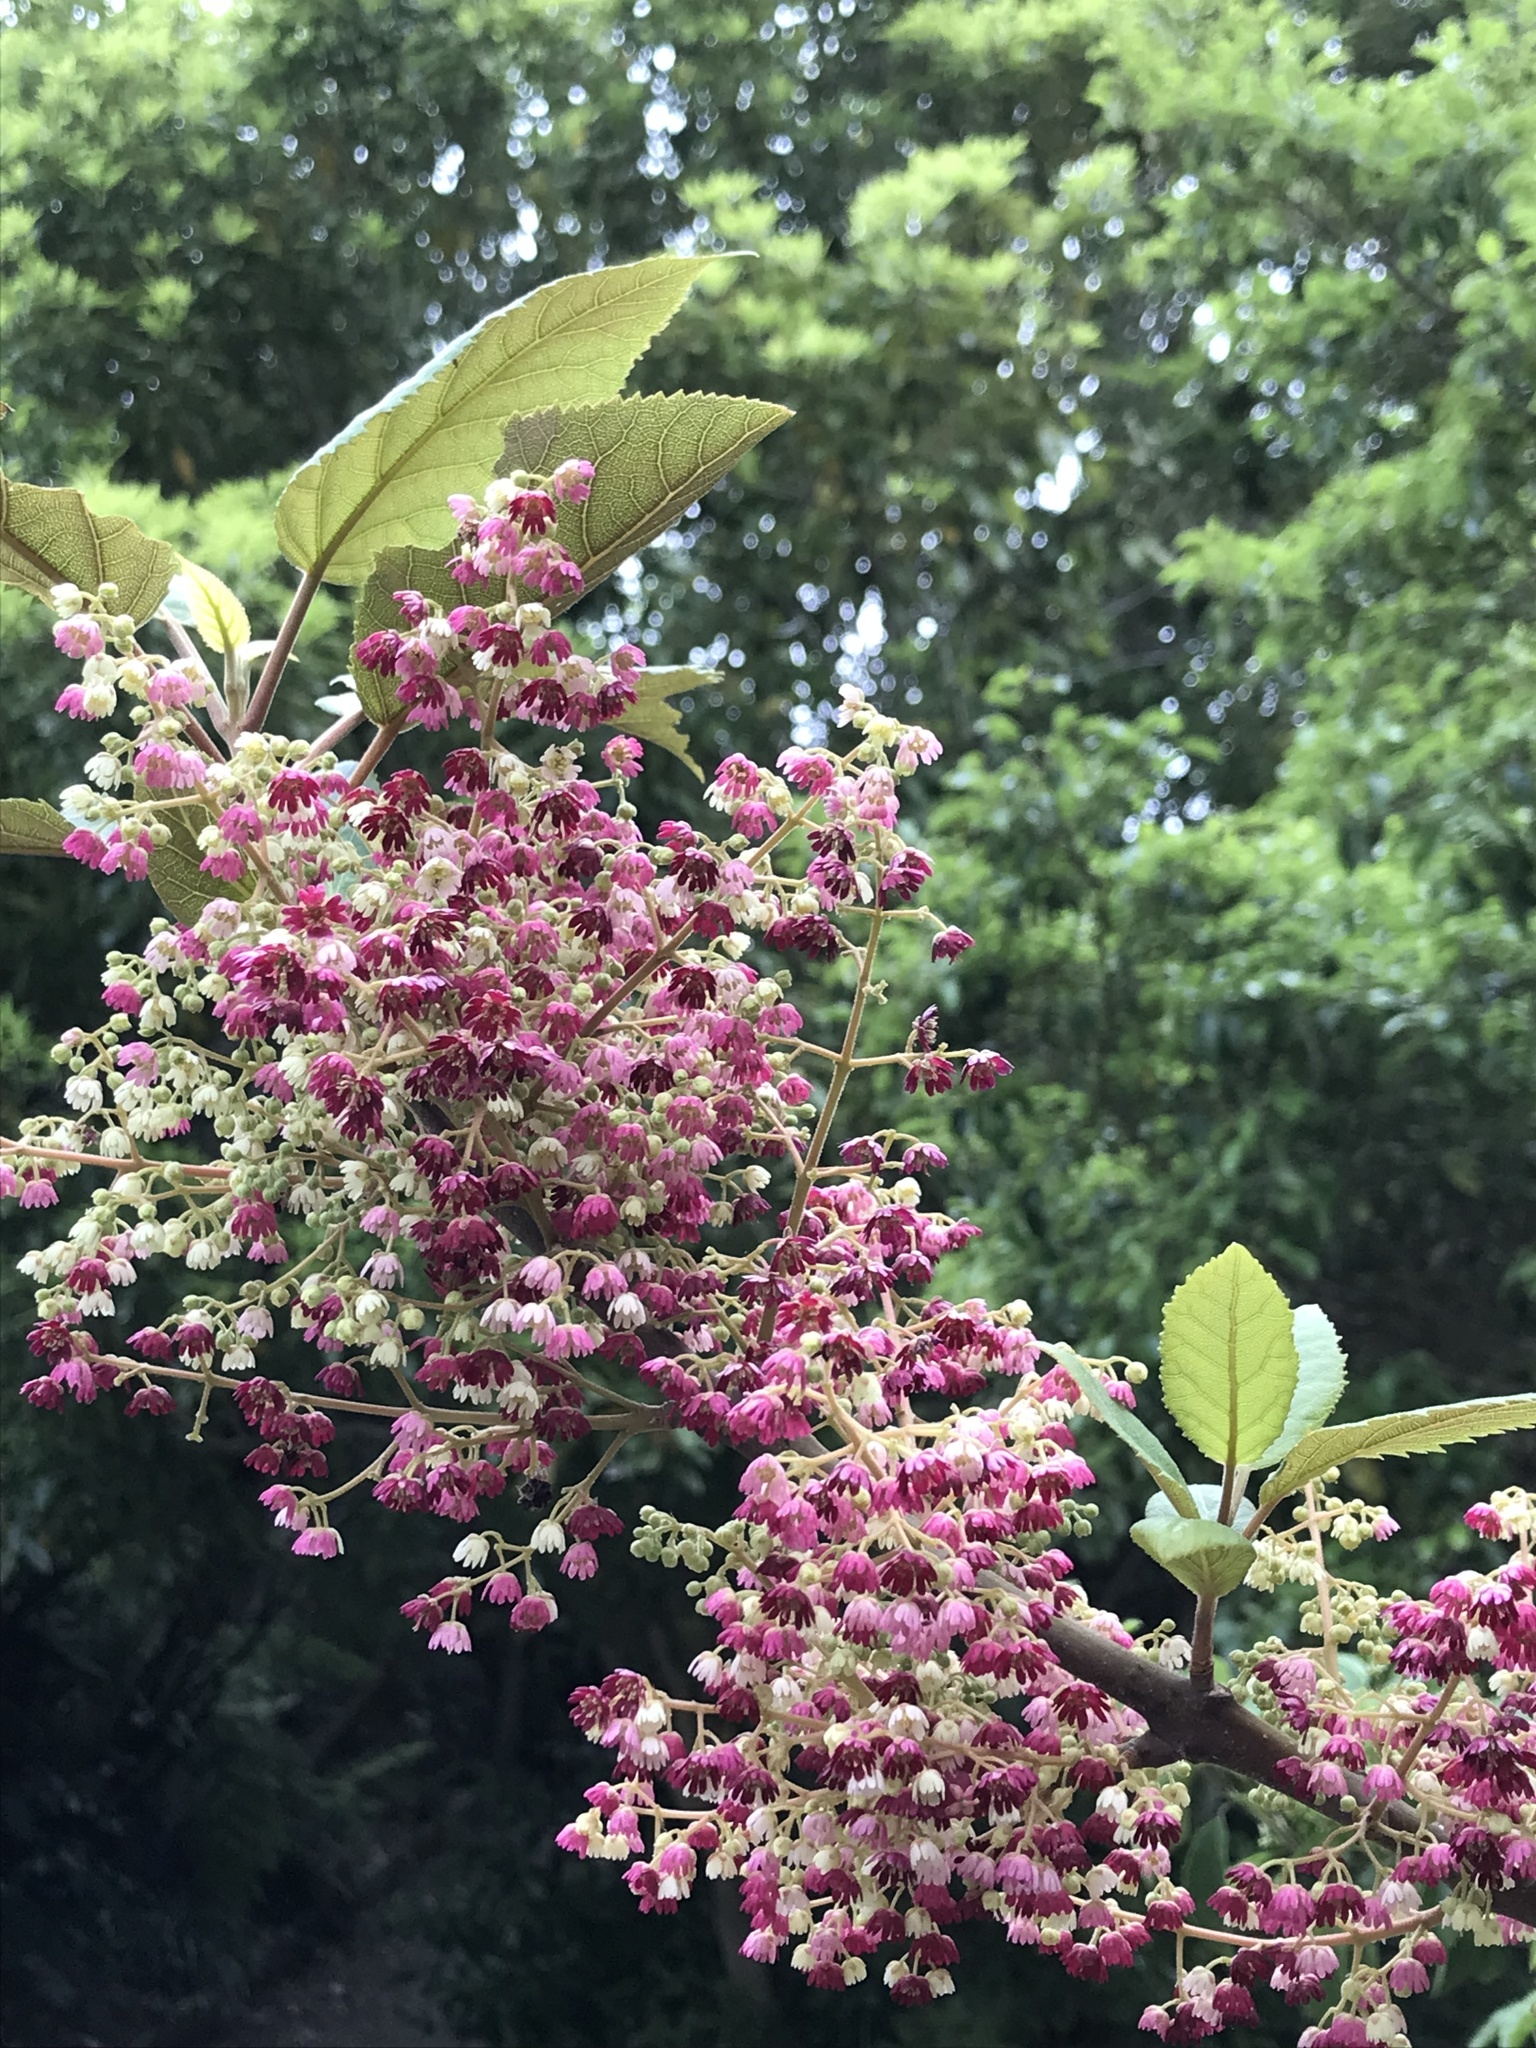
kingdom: Plantae
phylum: Tracheophyta
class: Magnoliopsida
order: Oxalidales
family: Elaeocarpaceae
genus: Aristotelia
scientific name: Aristotelia serrata
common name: New zealand wineberry
